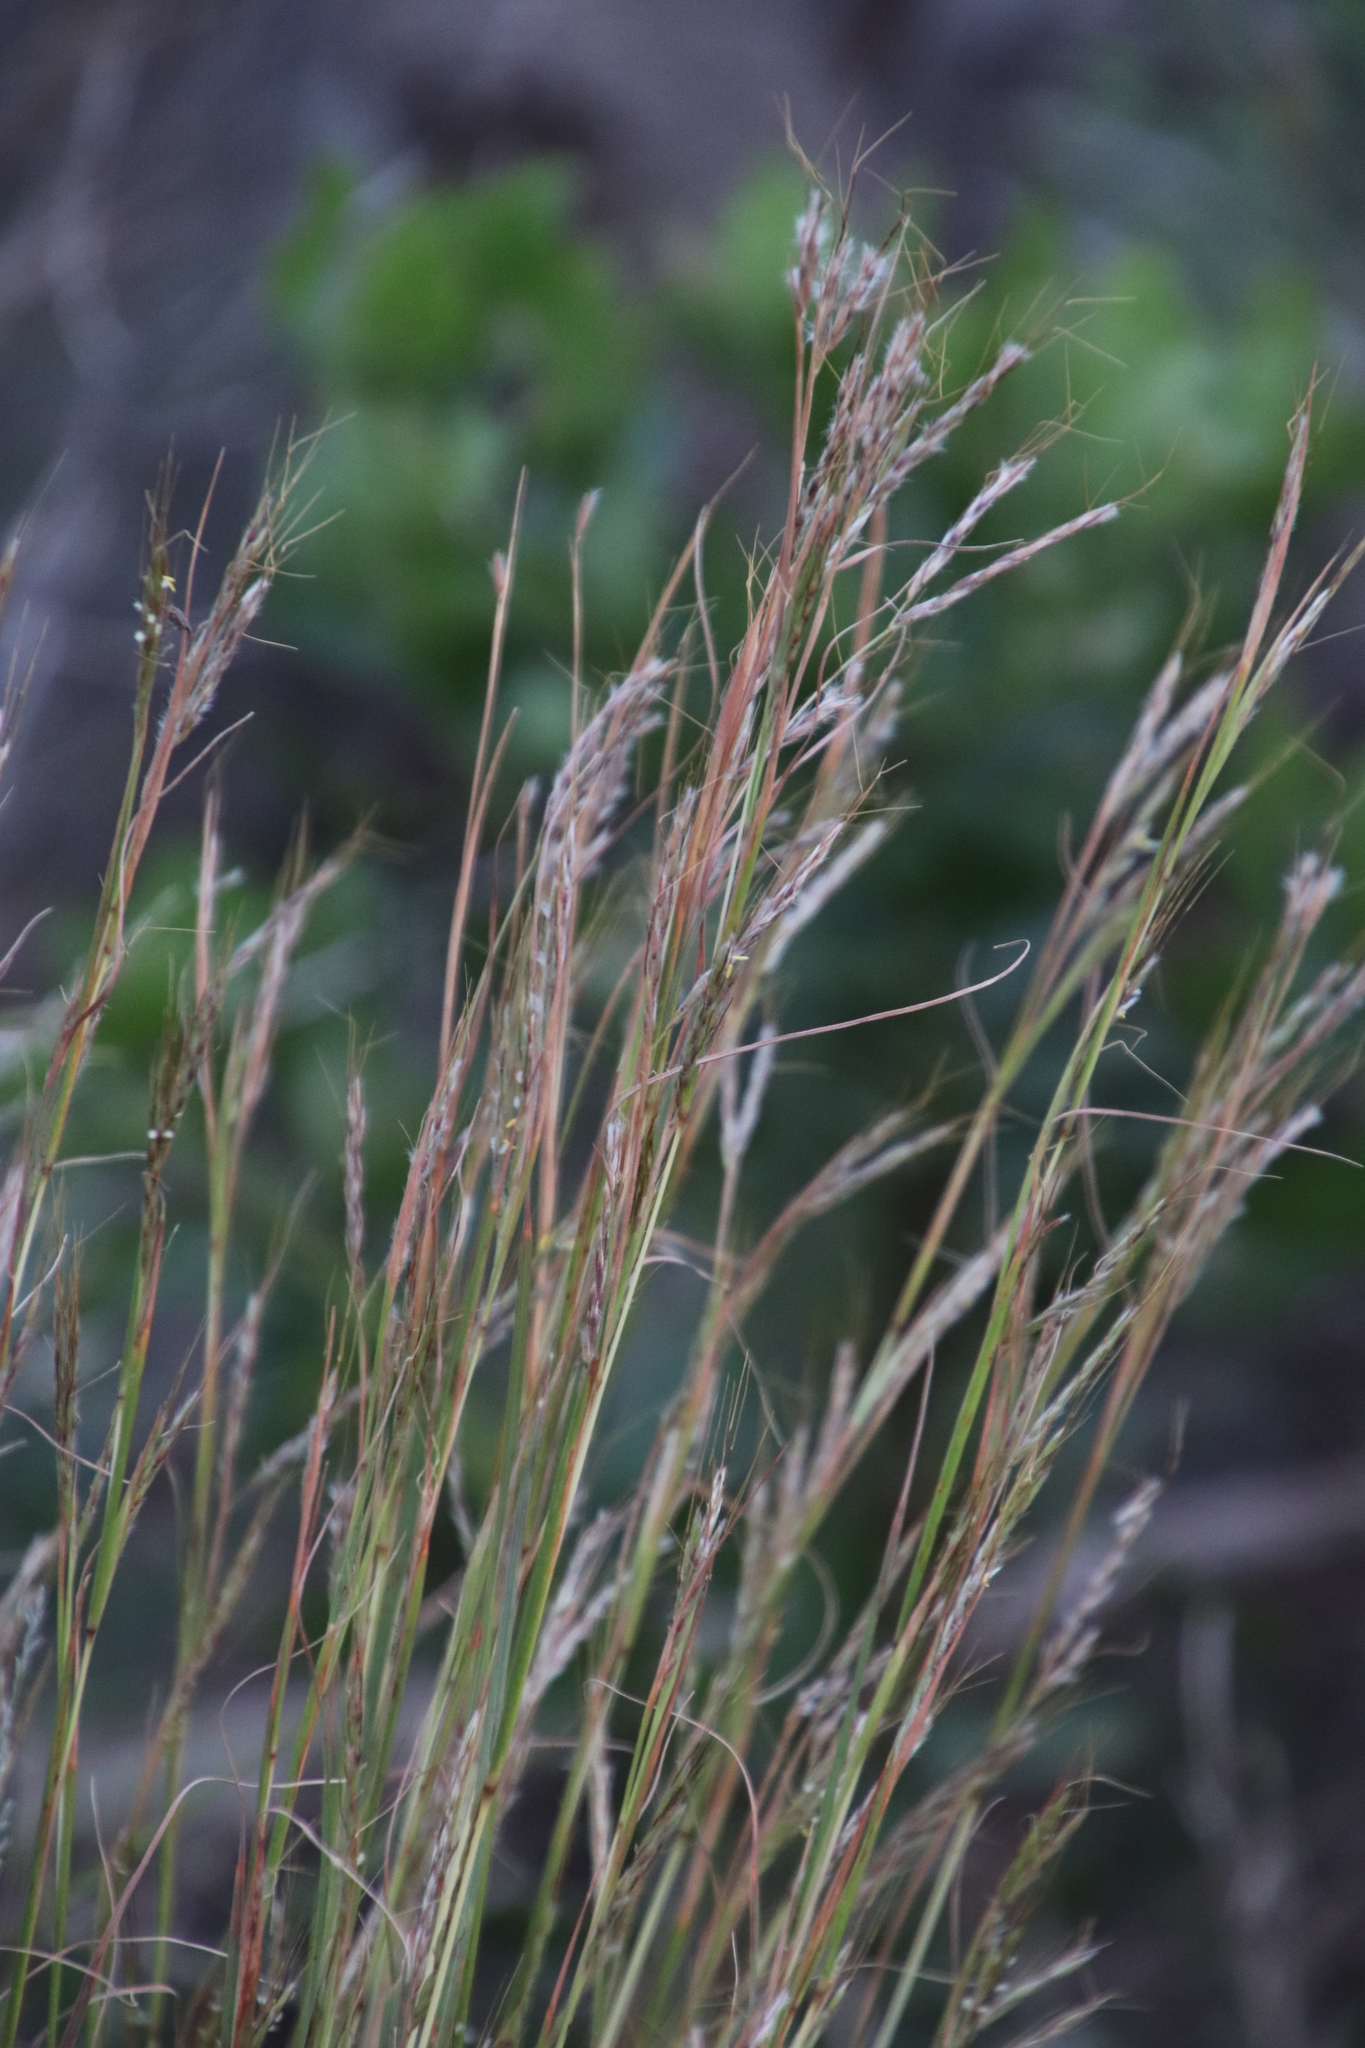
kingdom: Plantae
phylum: Tracheophyta
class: Liliopsida
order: Poales
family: Poaceae
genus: Hyparrhenia
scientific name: Hyparrhenia hirta
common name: Thatching grass
